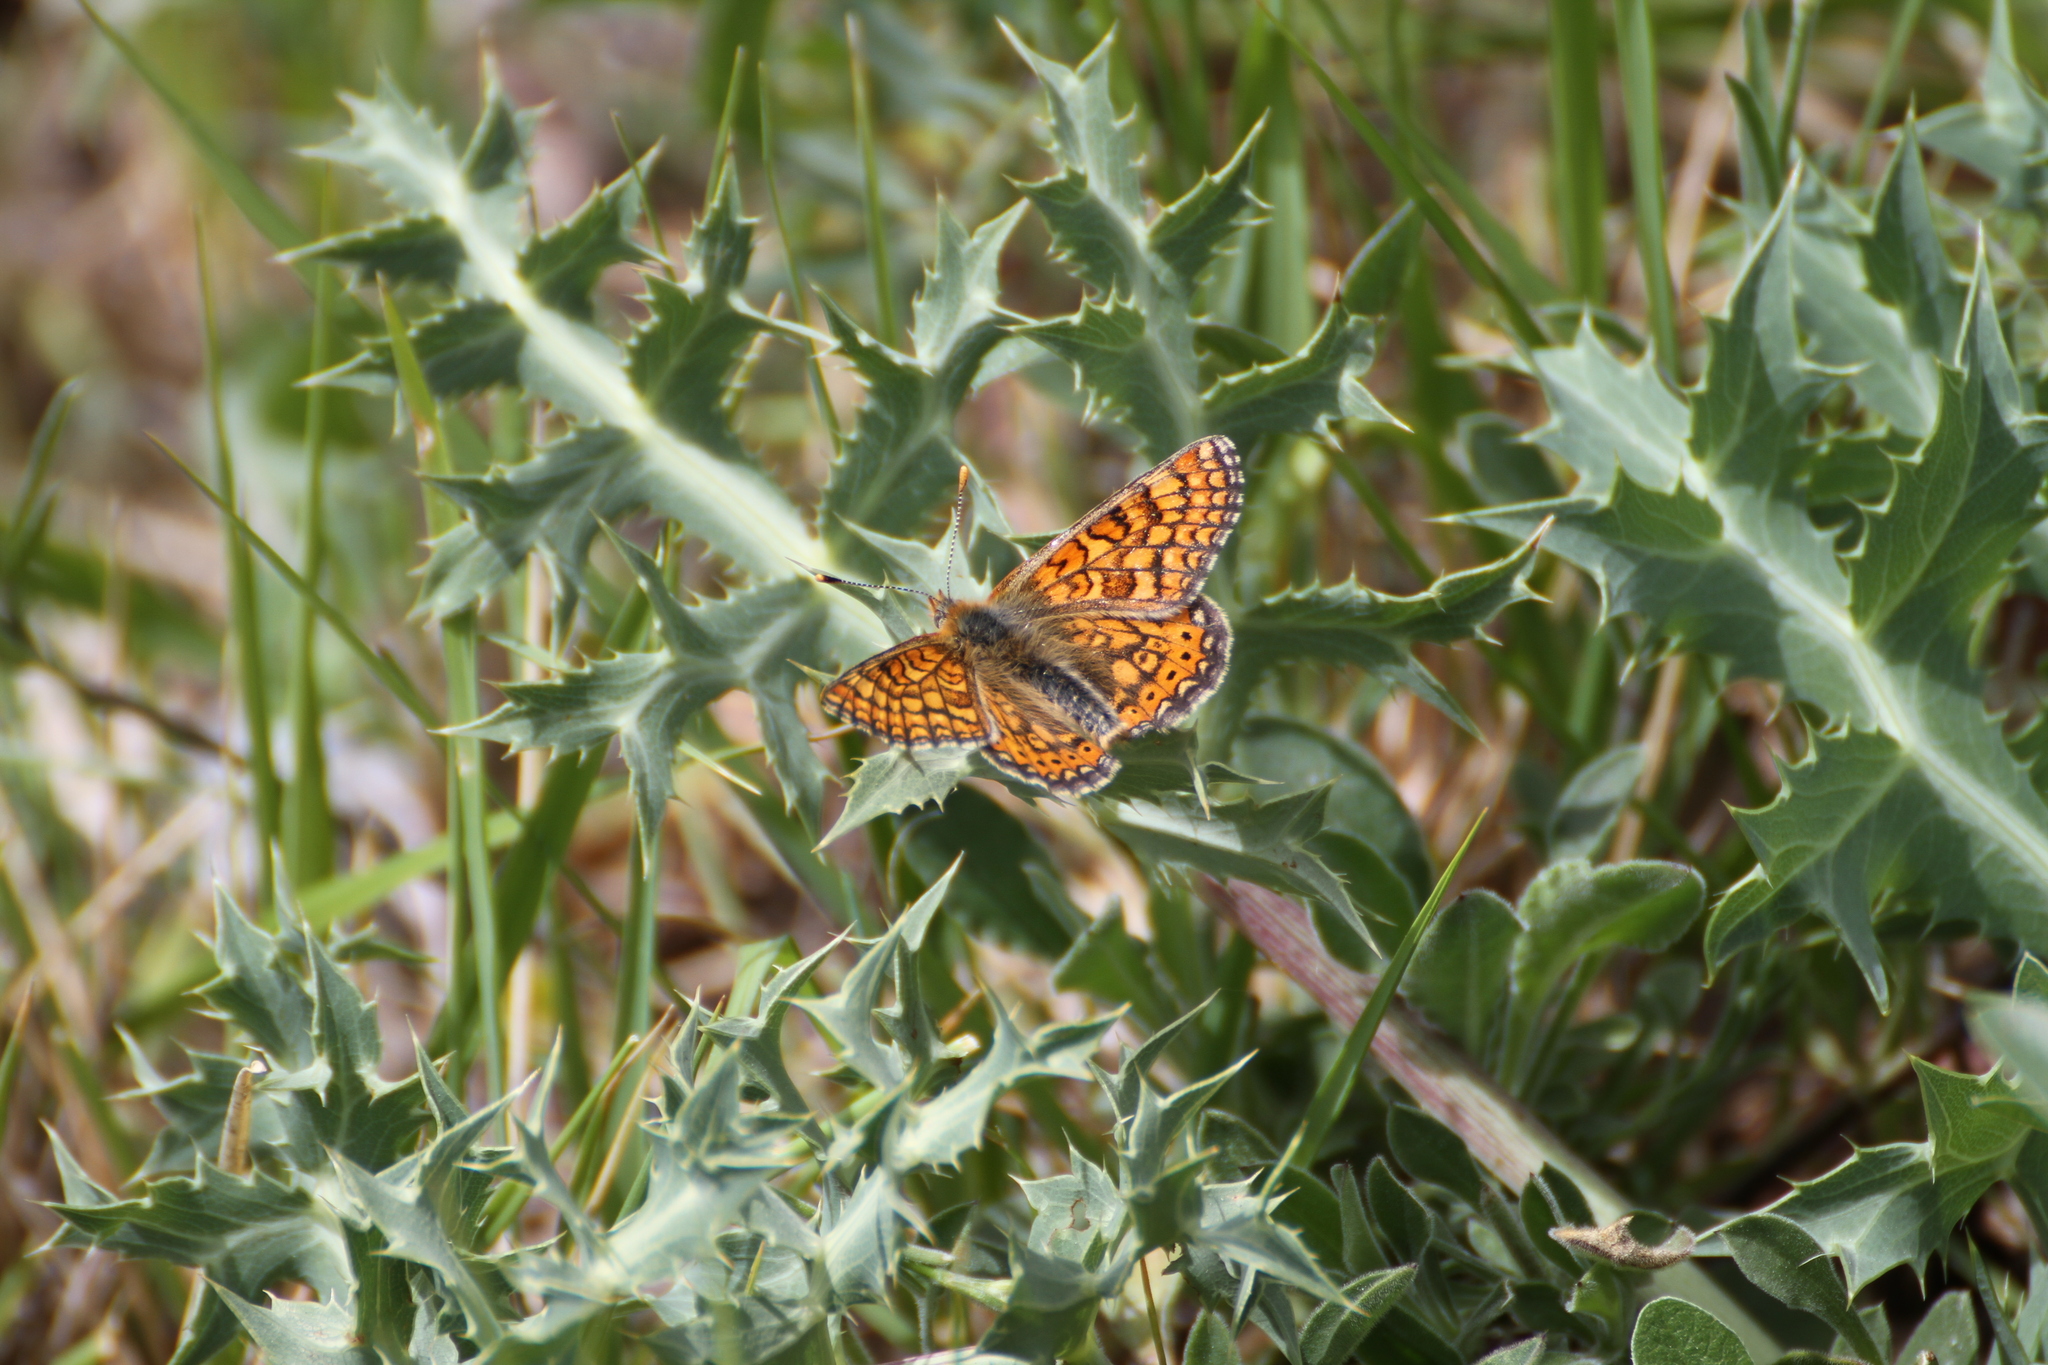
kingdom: Animalia
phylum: Arthropoda
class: Insecta
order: Lepidoptera
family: Nymphalidae
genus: Euphydryas
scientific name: Euphydryas aurinia
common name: Marsh fritillary
